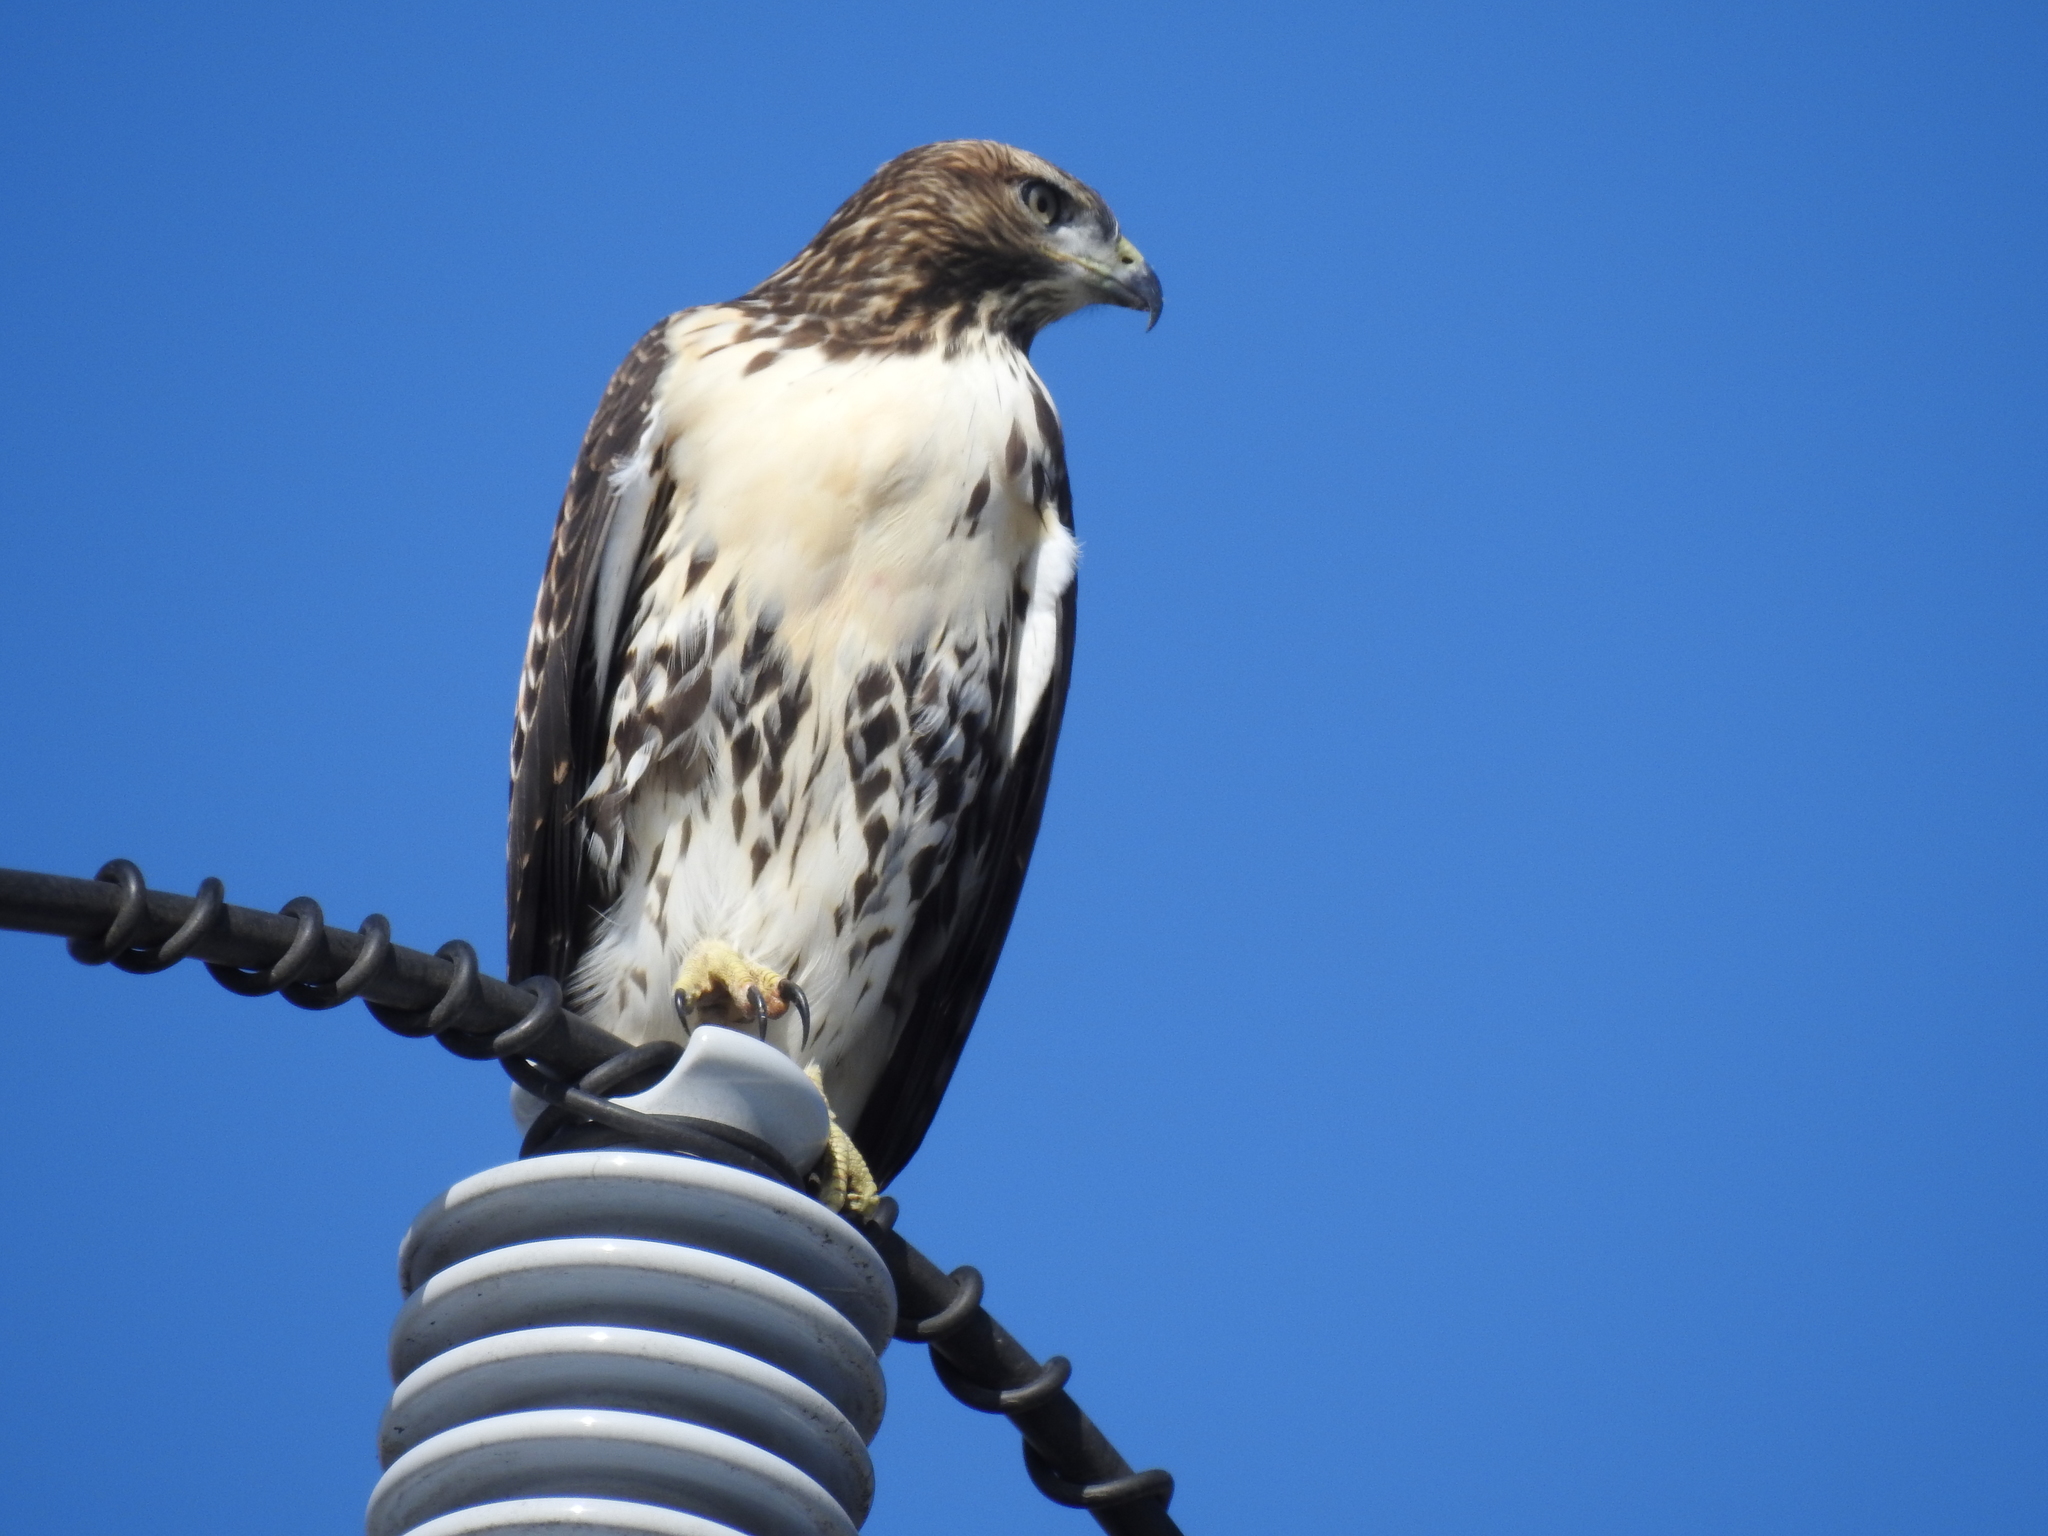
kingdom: Animalia
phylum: Chordata
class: Aves
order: Accipitriformes
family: Accipitridae
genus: Buteo
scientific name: Buteo jamaicensis
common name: Red-tailed hawk
